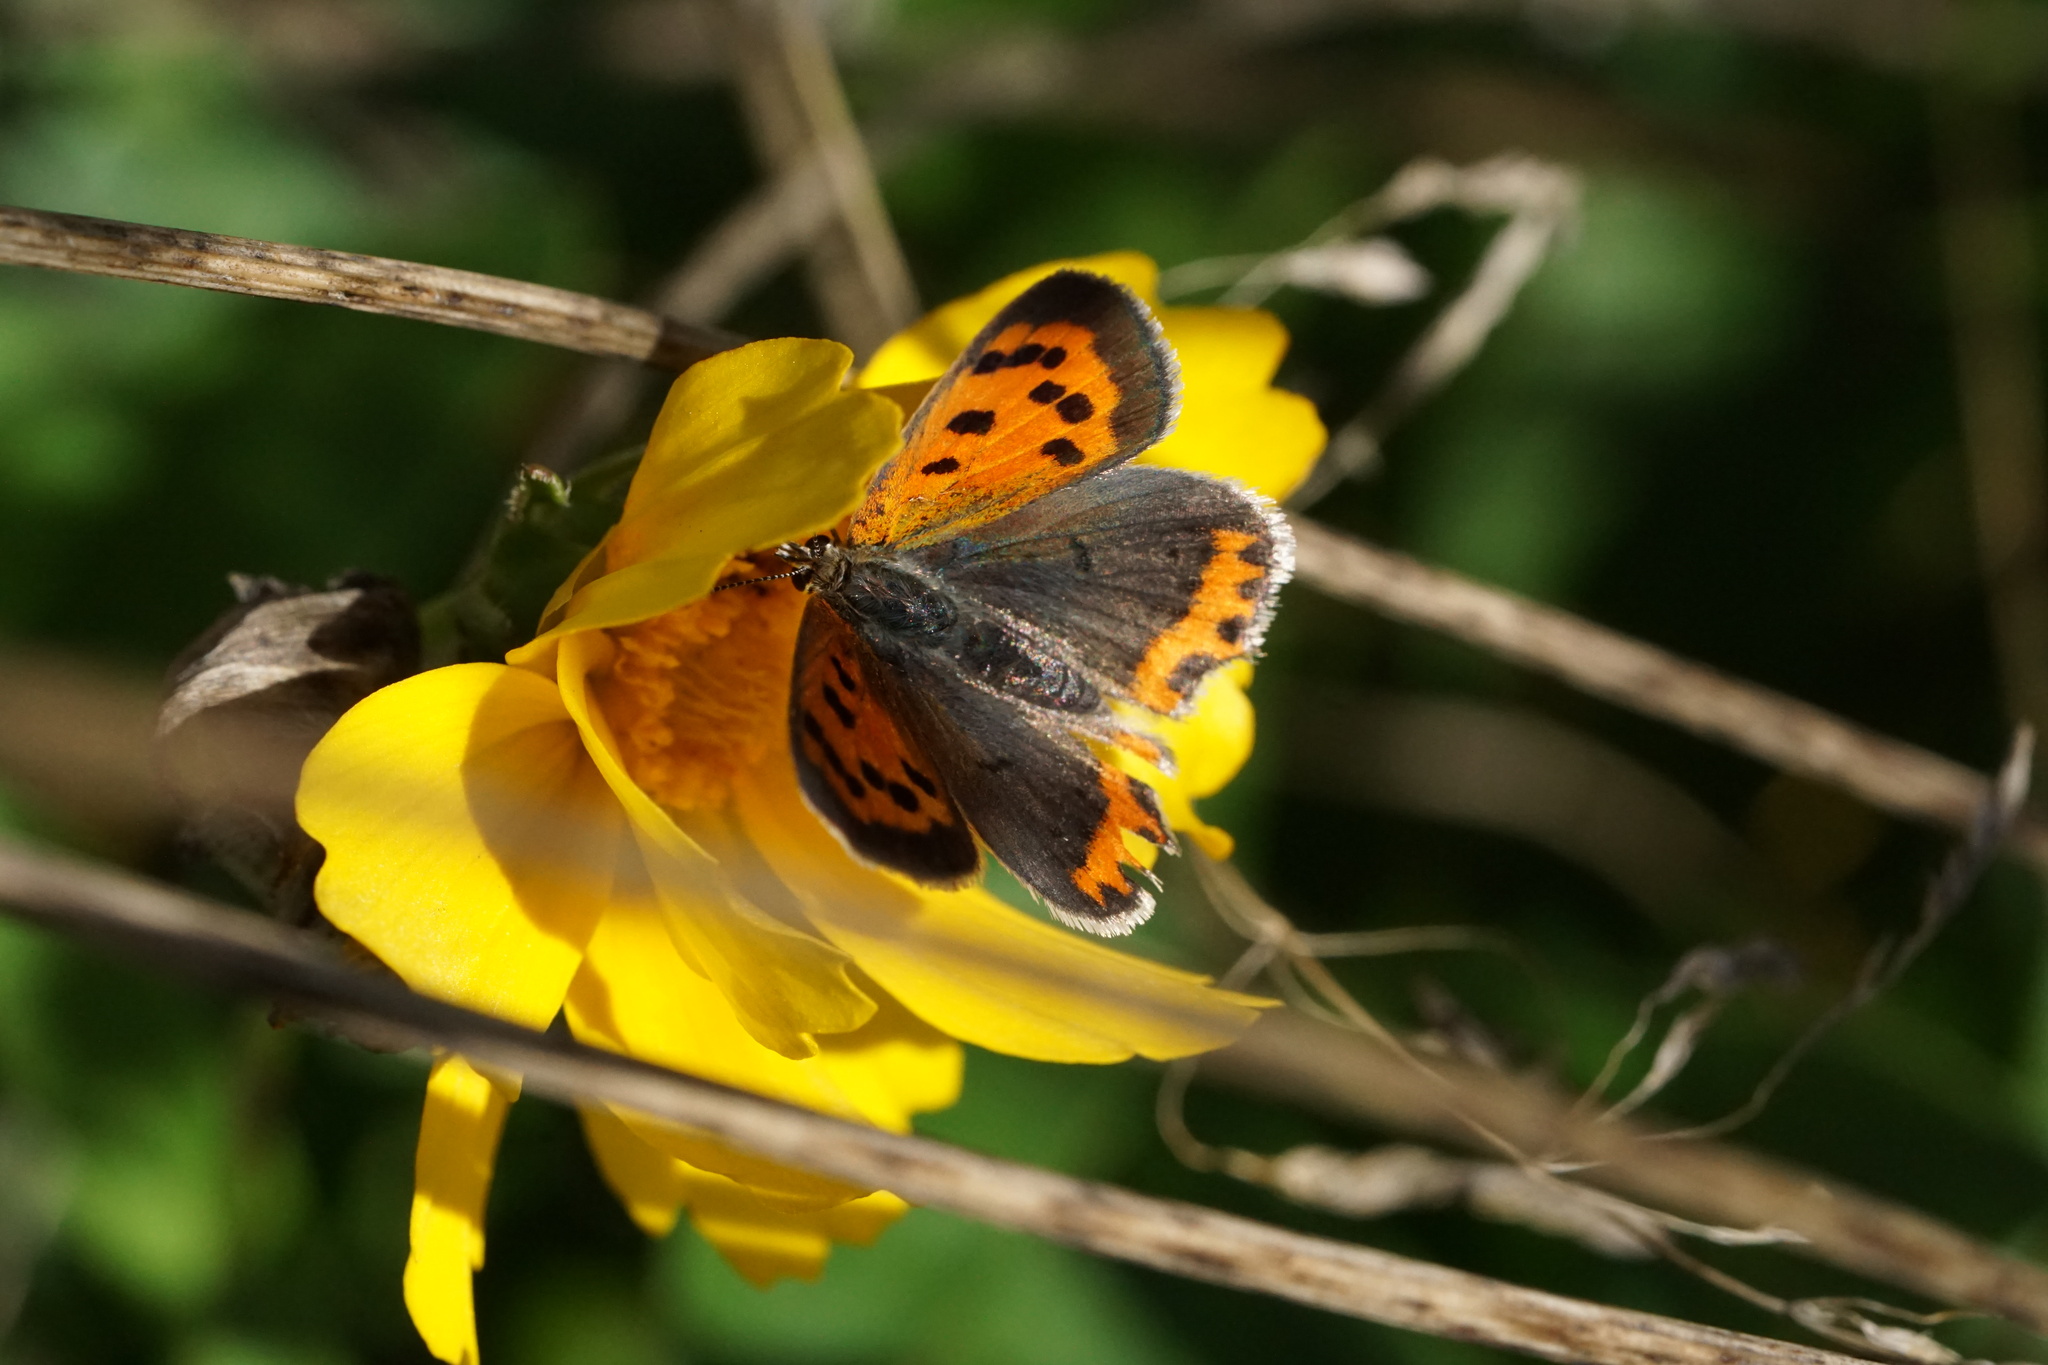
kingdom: Animalia
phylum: Arthropoda
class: Insecta
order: Lepidoptera
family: Lycaenidae
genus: Lycaena
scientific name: Lycaena hypophlaeas
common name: American copper
